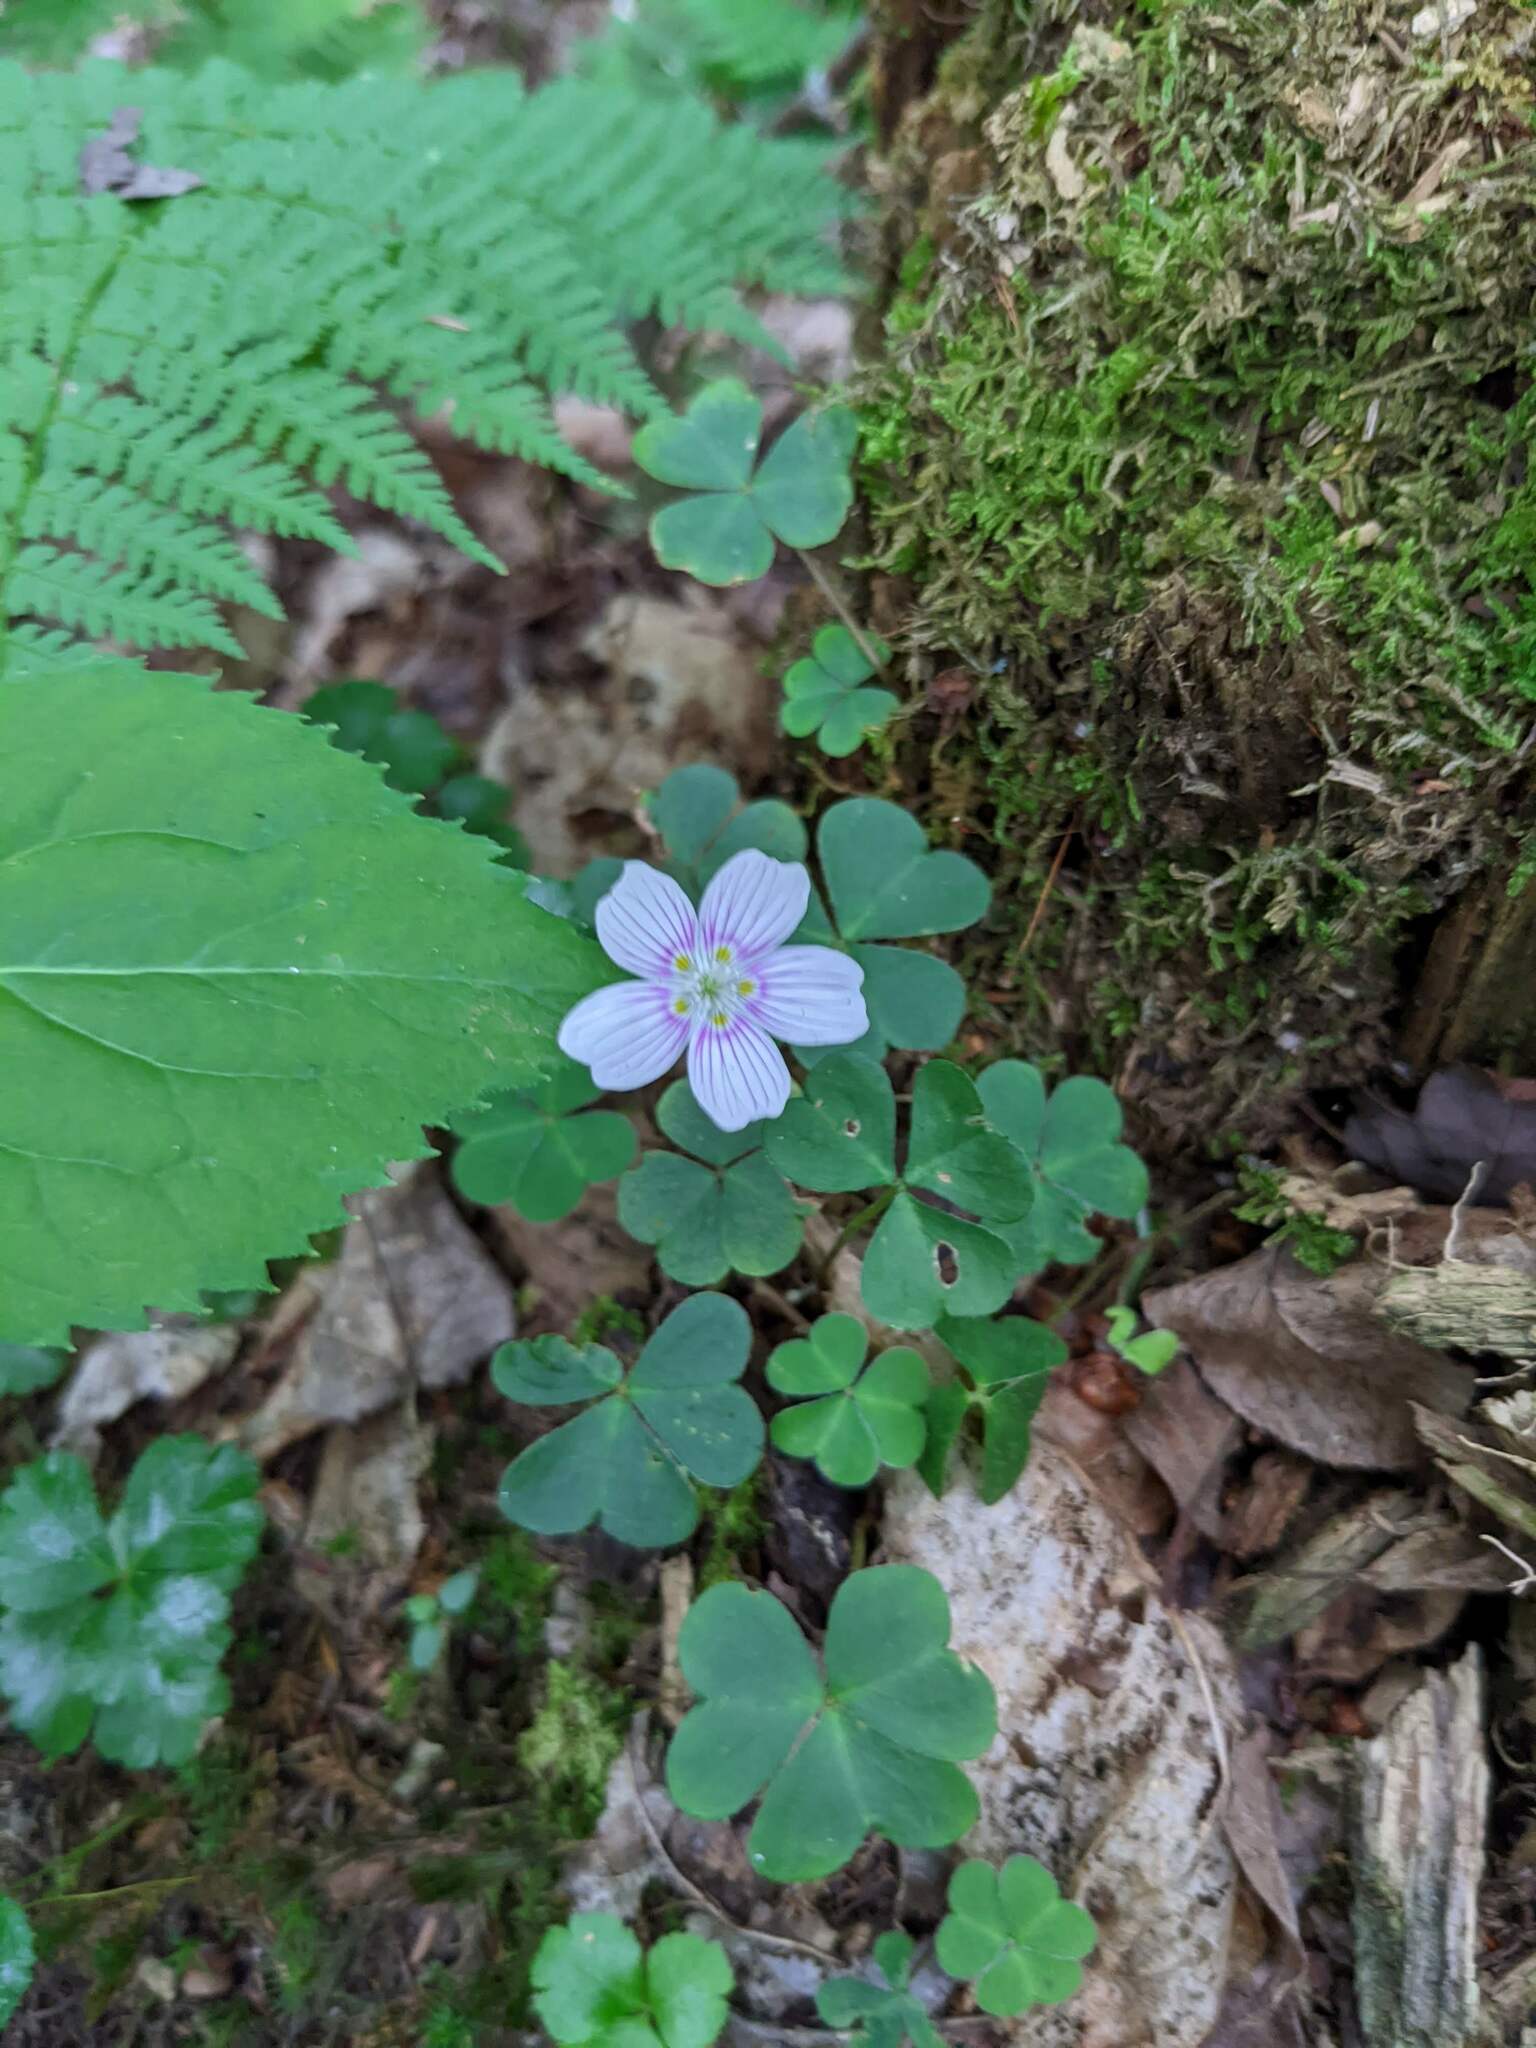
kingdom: Plantae
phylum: Tracheophyta
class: Magnoliopsida
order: Oxalidales
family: Oxalidaceae
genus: Oxalis
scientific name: Oxalis montana
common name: American wood-sorrel
